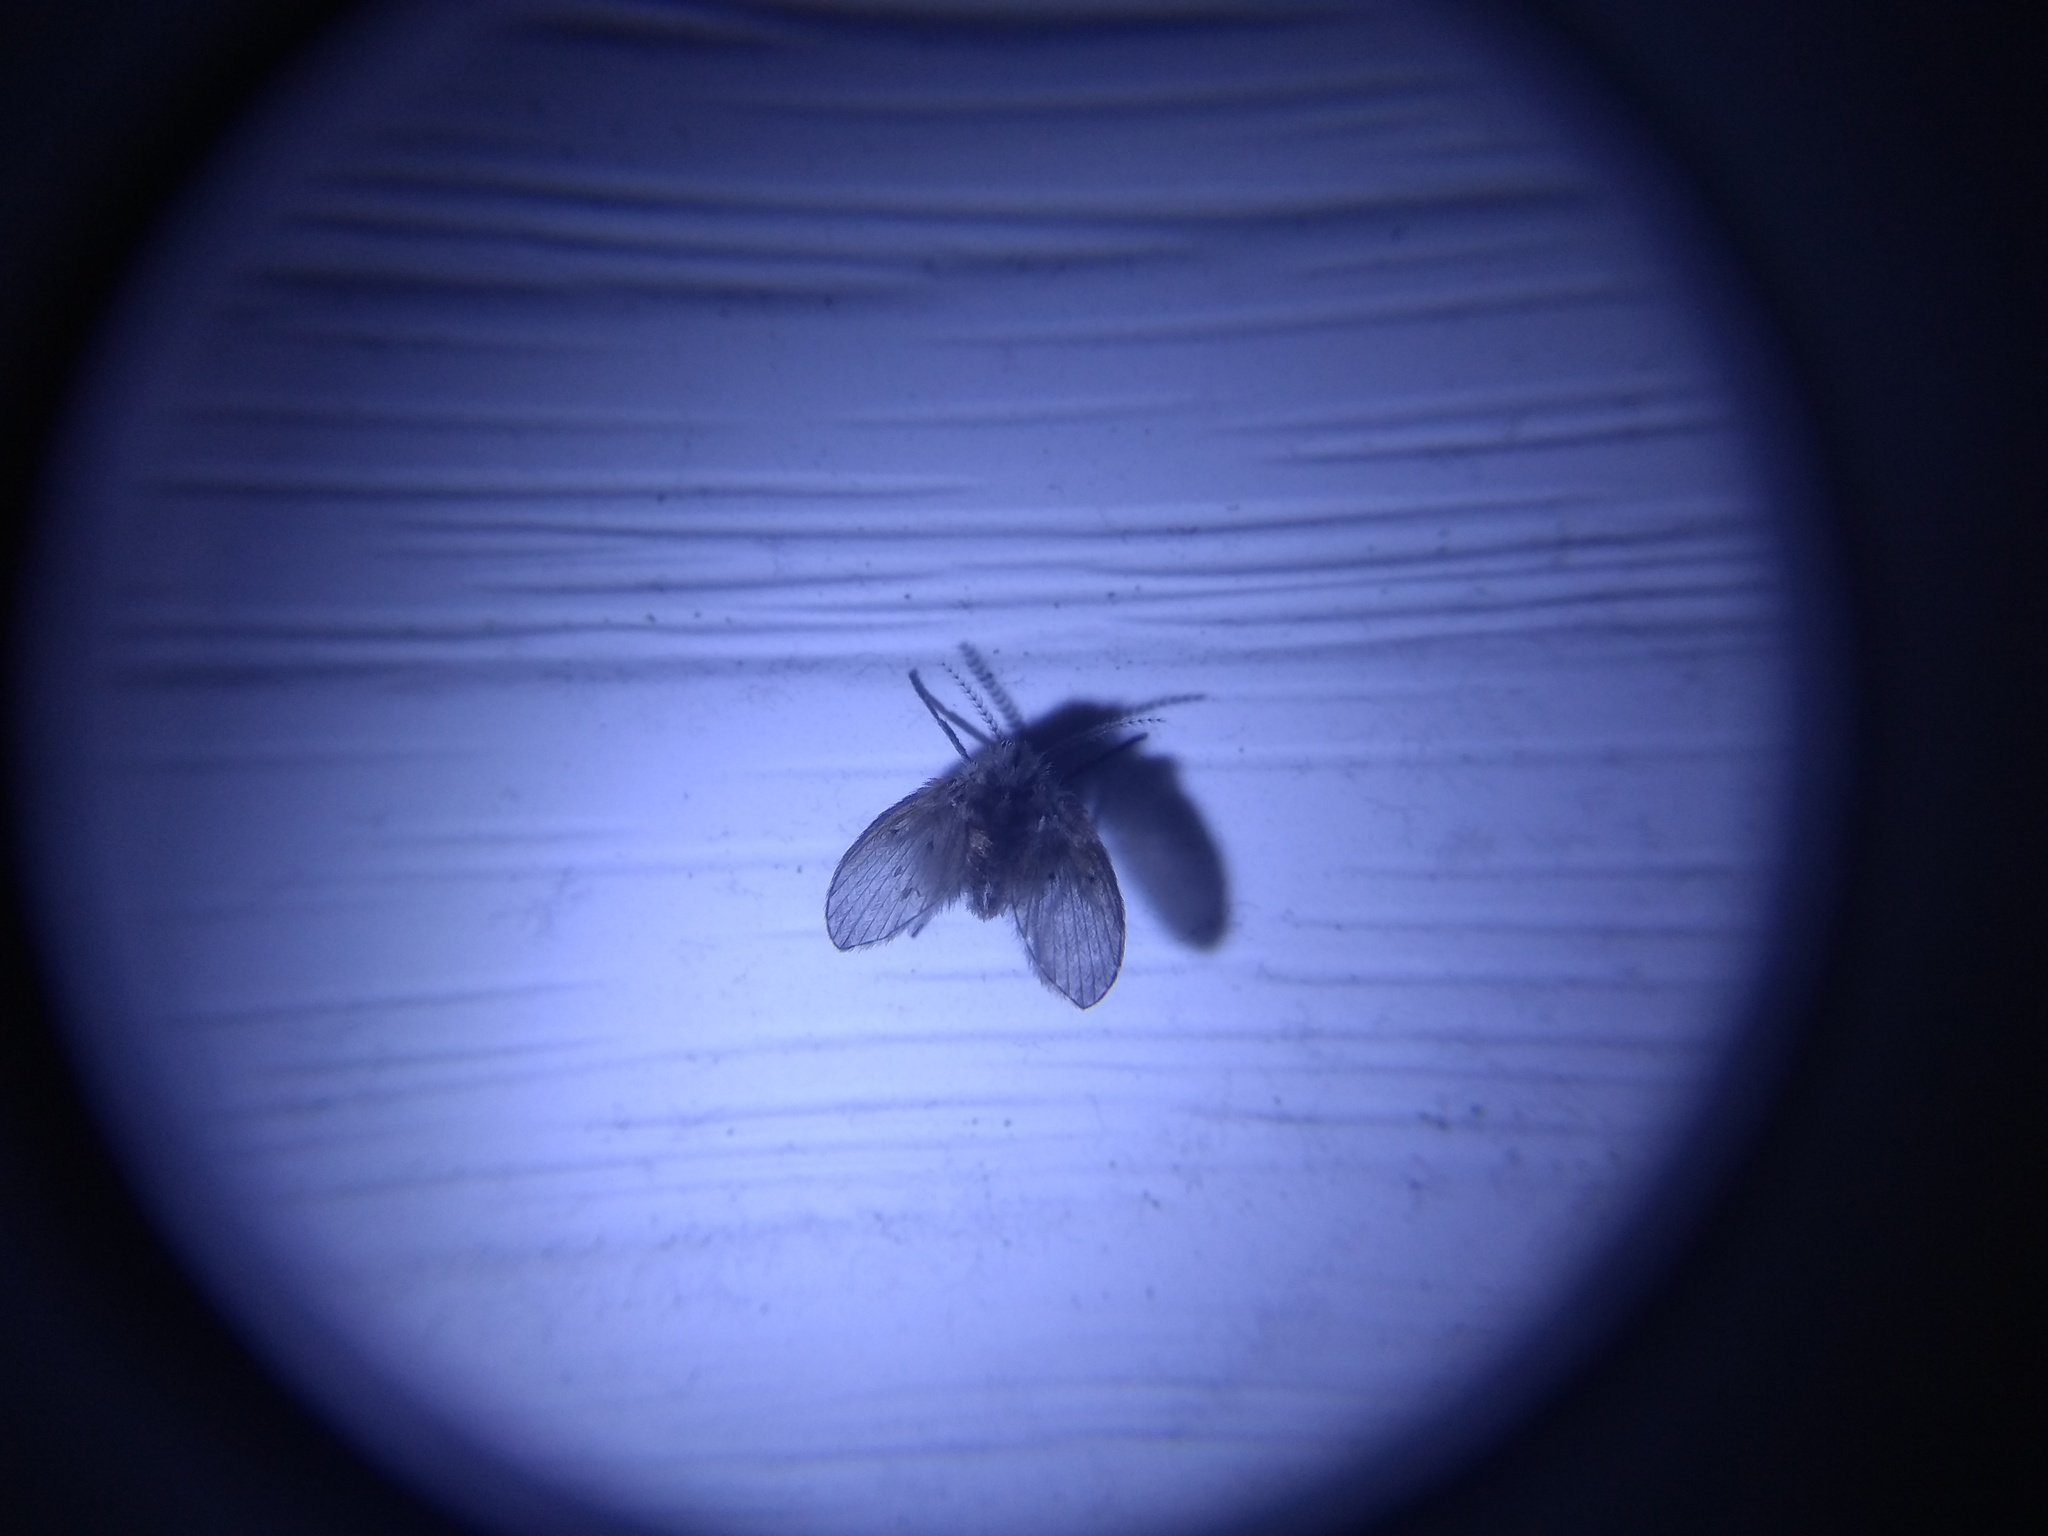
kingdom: Animalia
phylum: Arthropoda
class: Insecta
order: Diptera
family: Psychodidae
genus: Clogmia
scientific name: Clogmia albipunctatus
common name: White-spotted moth fly
